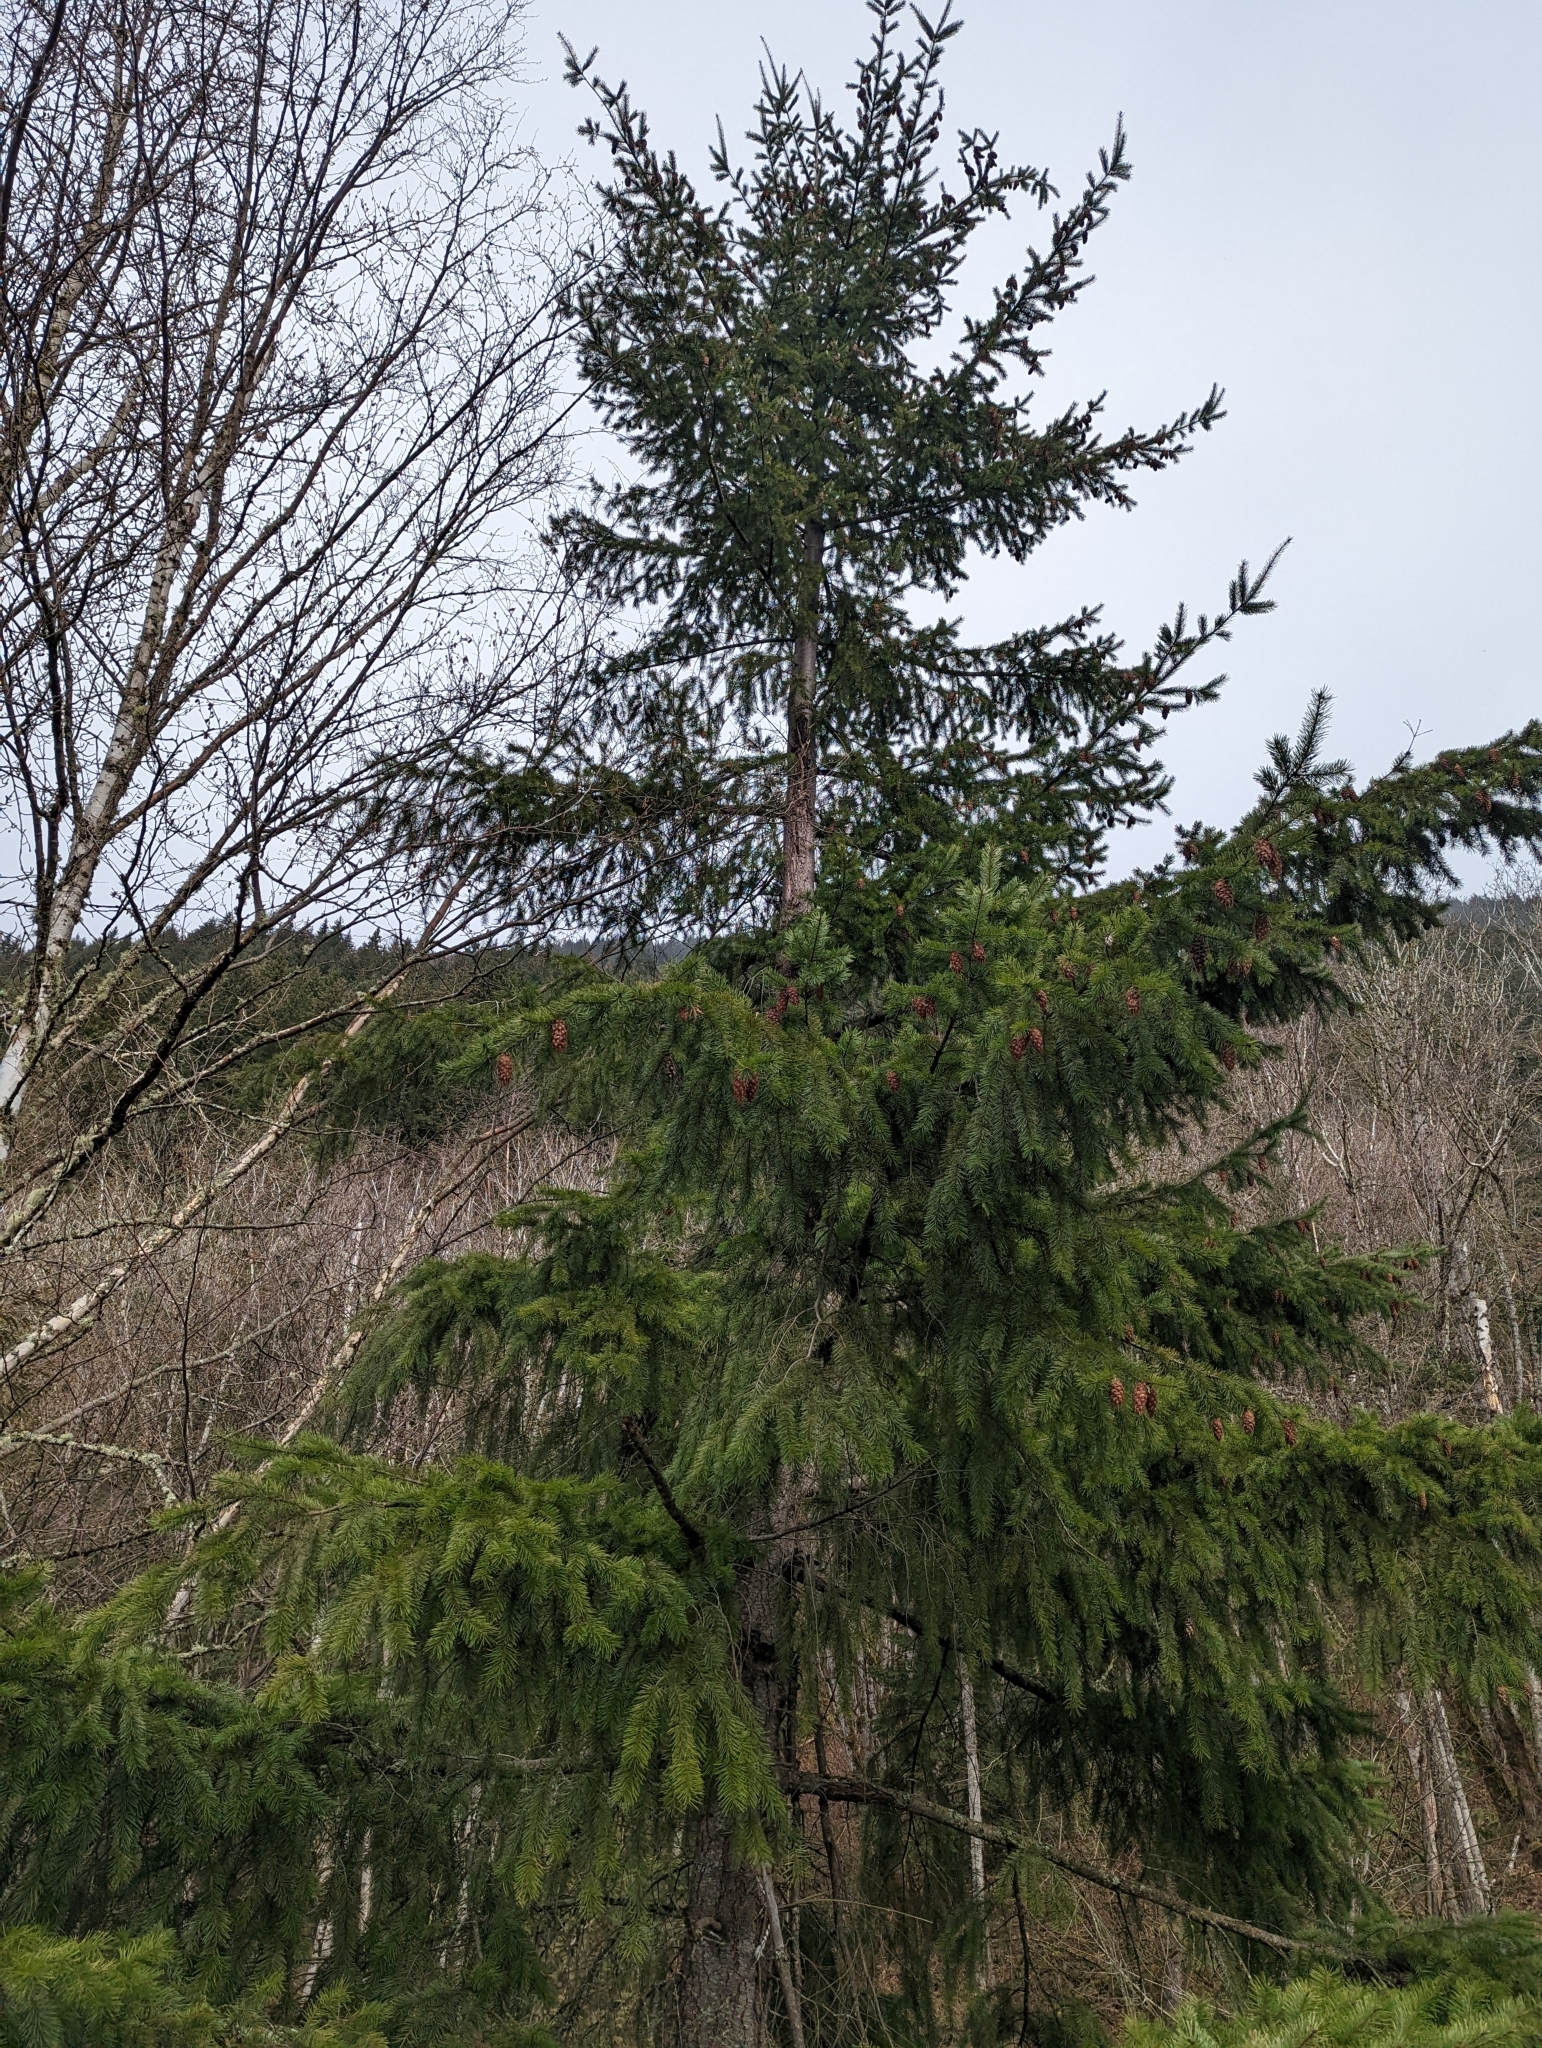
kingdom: Plantae
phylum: Tracheophyta
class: Pinopsida
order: Pinales
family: Pinaceae
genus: Pseudotsuga
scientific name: Pseudotsuga menziesii
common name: Douglas fir
